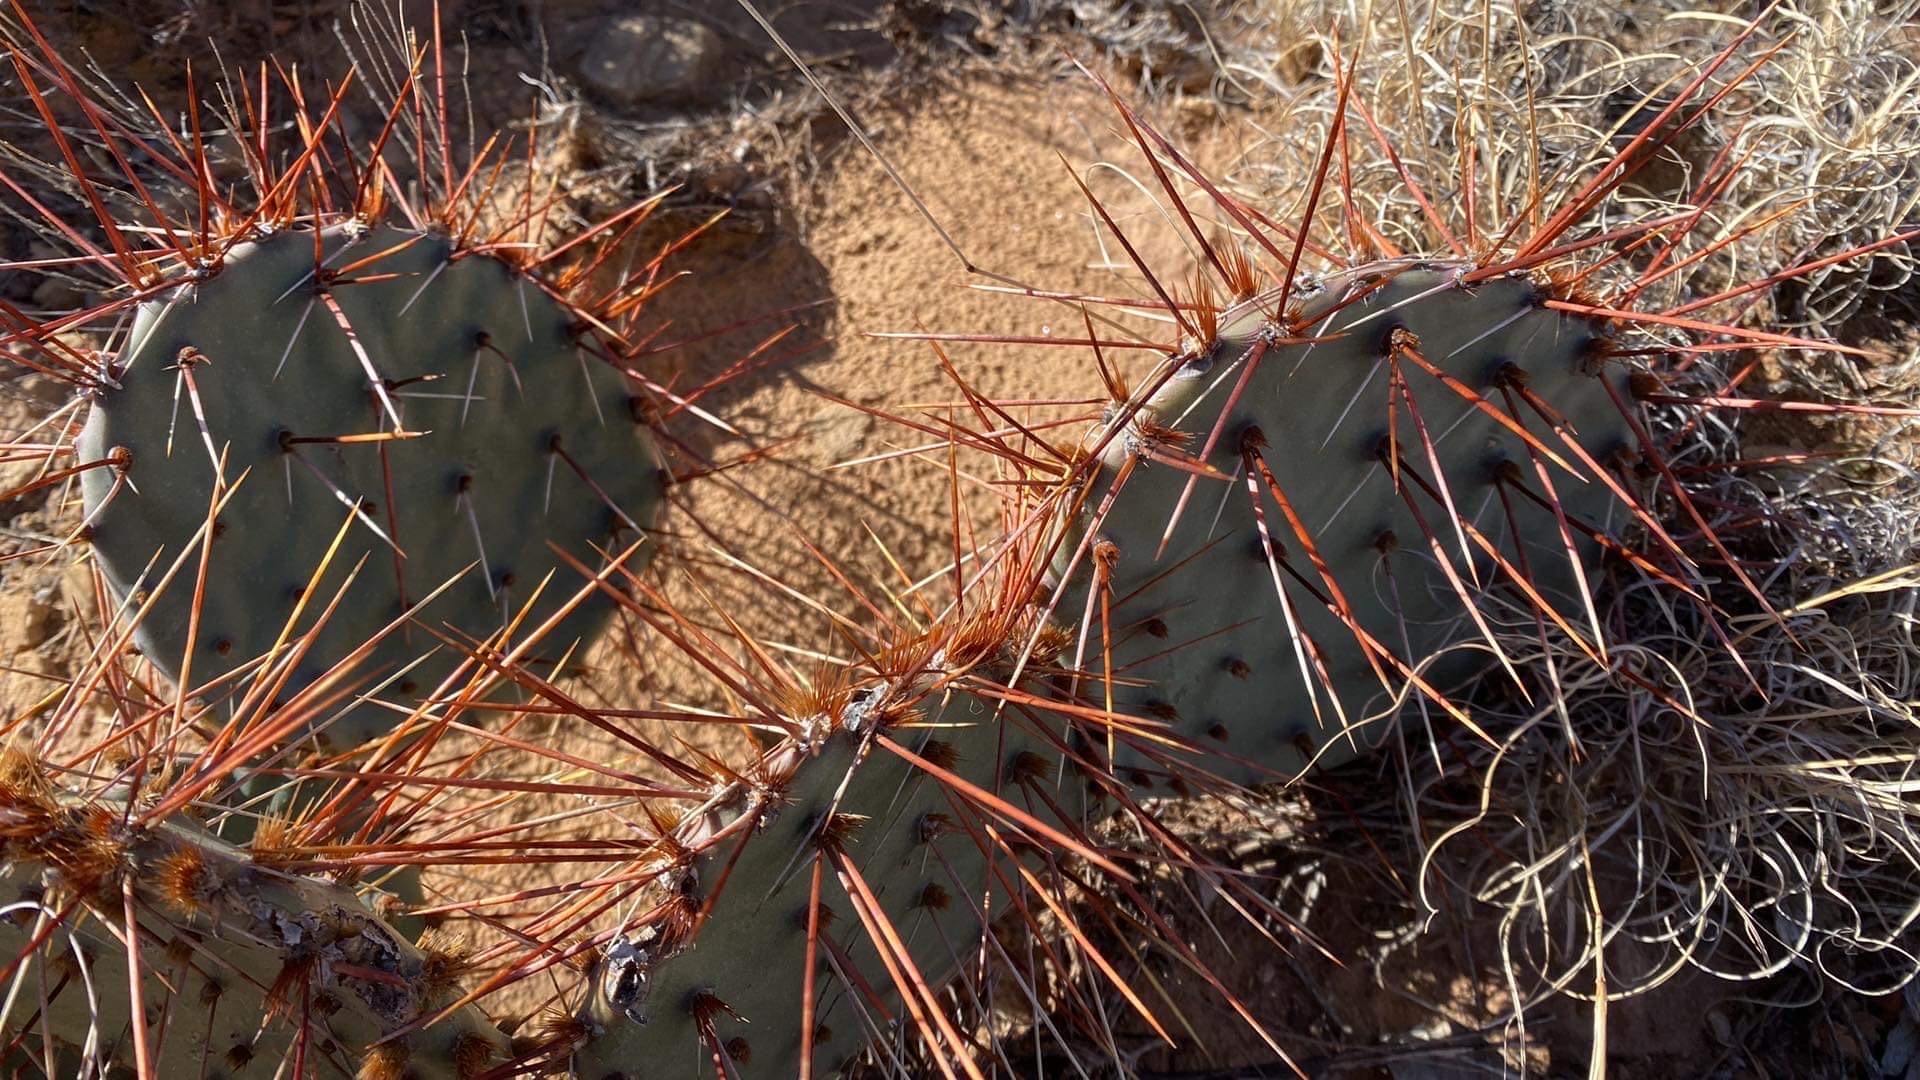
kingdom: Plantae
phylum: Tracheophyta
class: Magnoliopsida
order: Caryophyllales
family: Cactaceae
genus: Opuntia
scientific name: Opuntia phaeacantha
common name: New mexico prickly-pear
